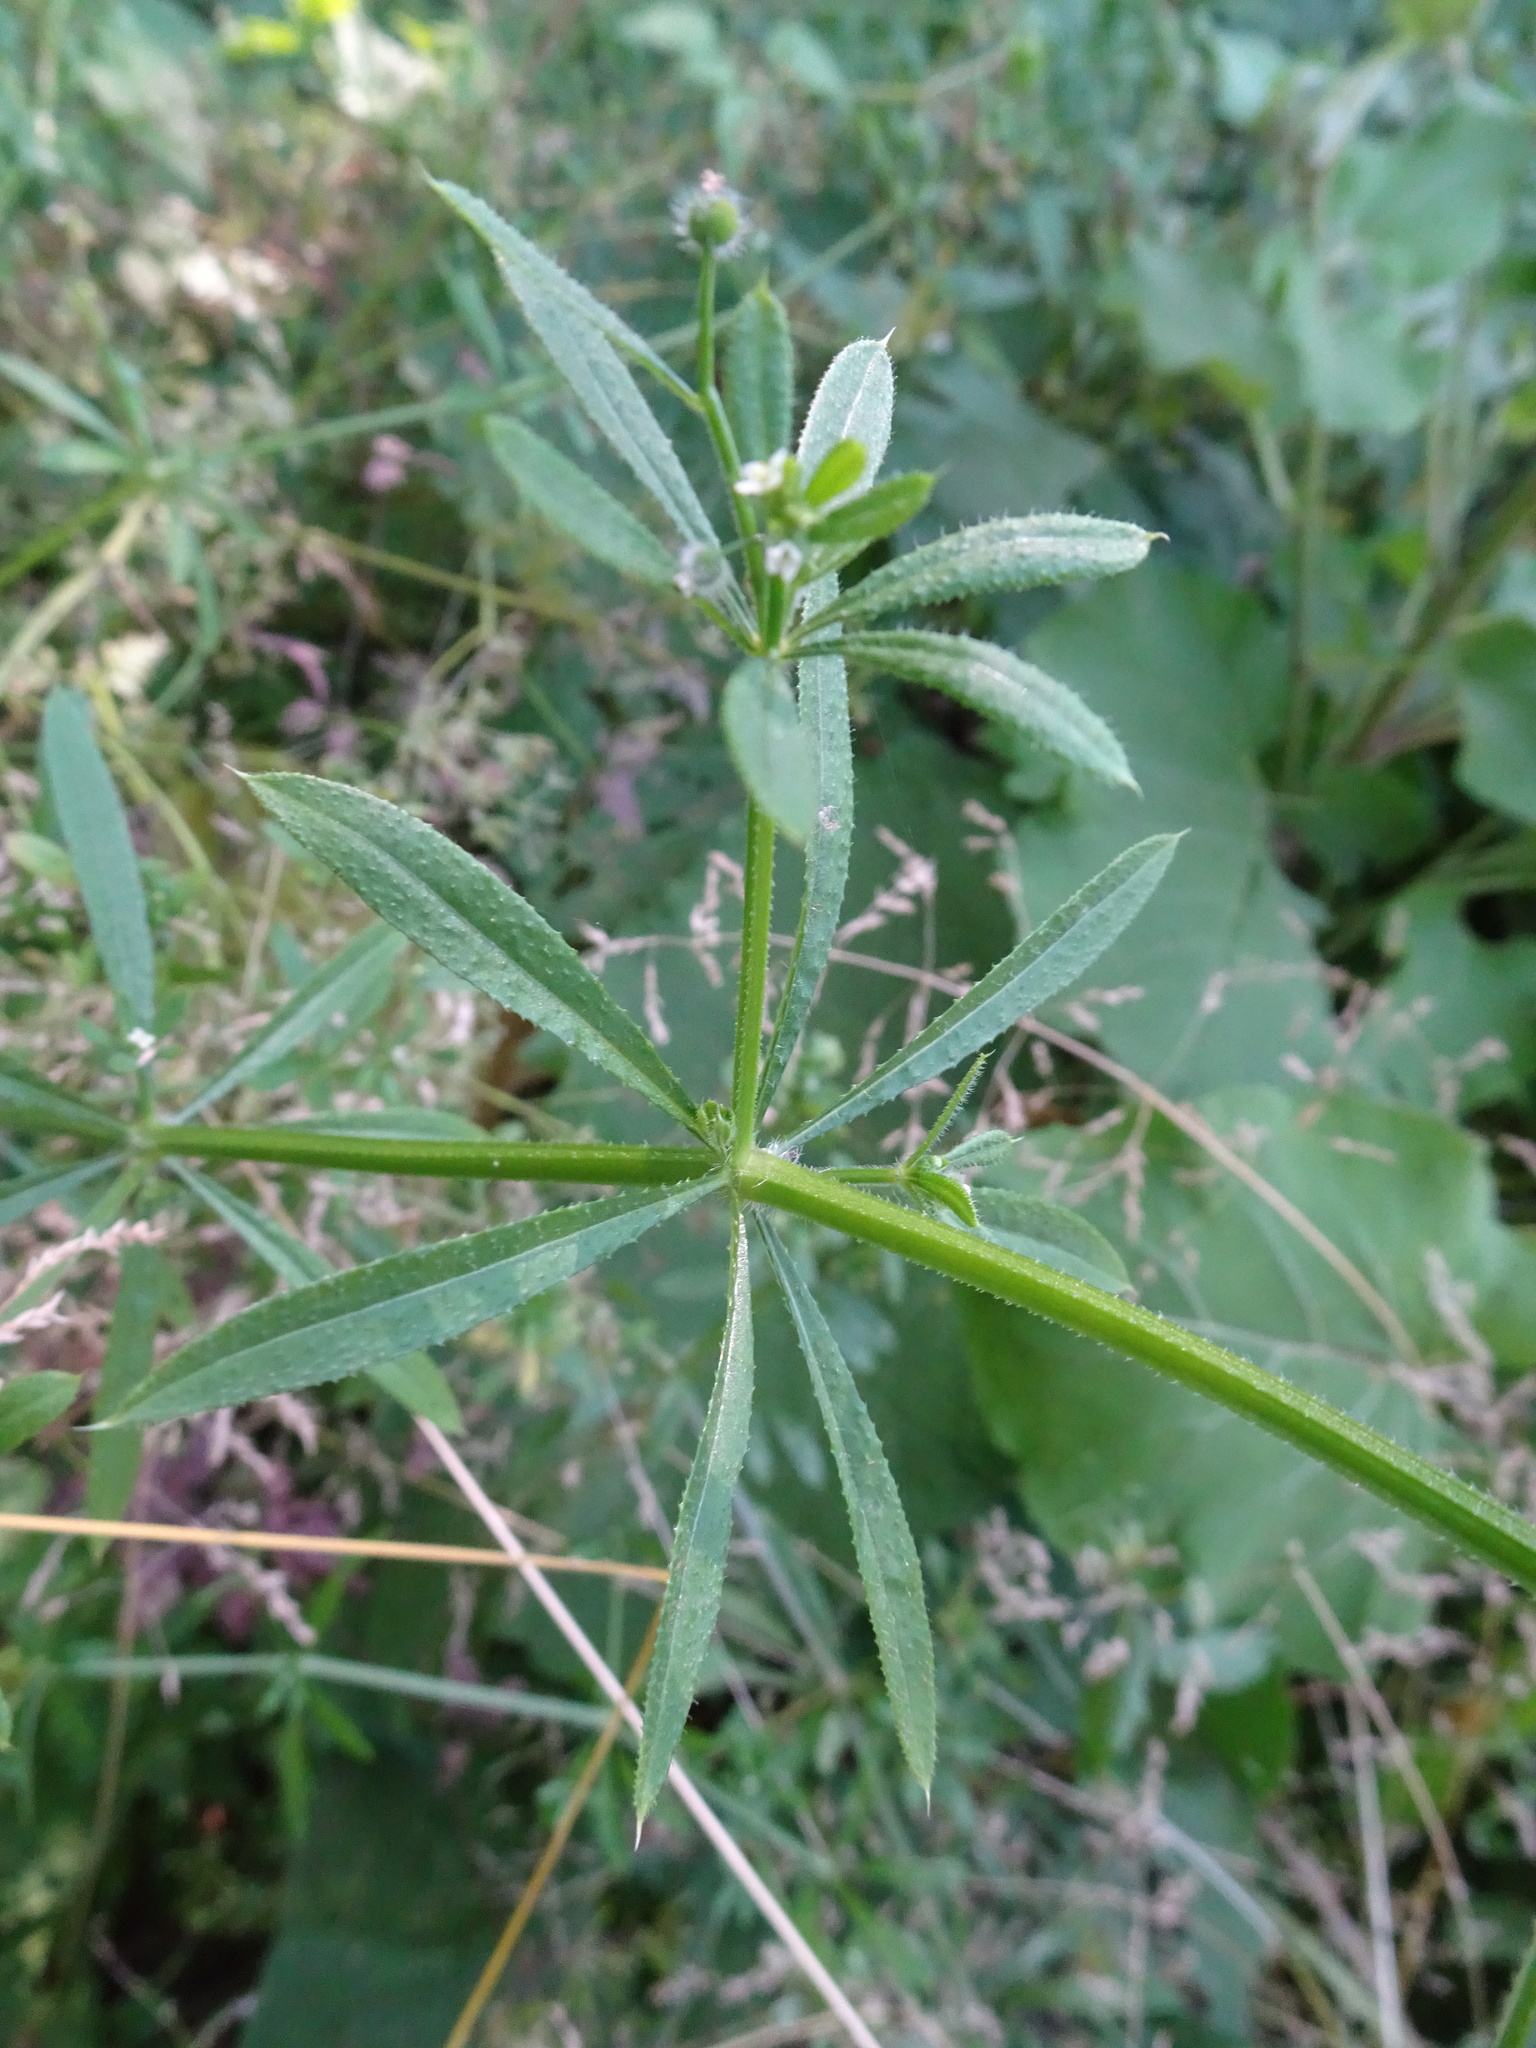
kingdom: Plantae
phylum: Tracheophyta
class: Magnoliopsida
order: Gentianales
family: Rubiaceae
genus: Galium
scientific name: Galium aparine
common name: Cleavers
